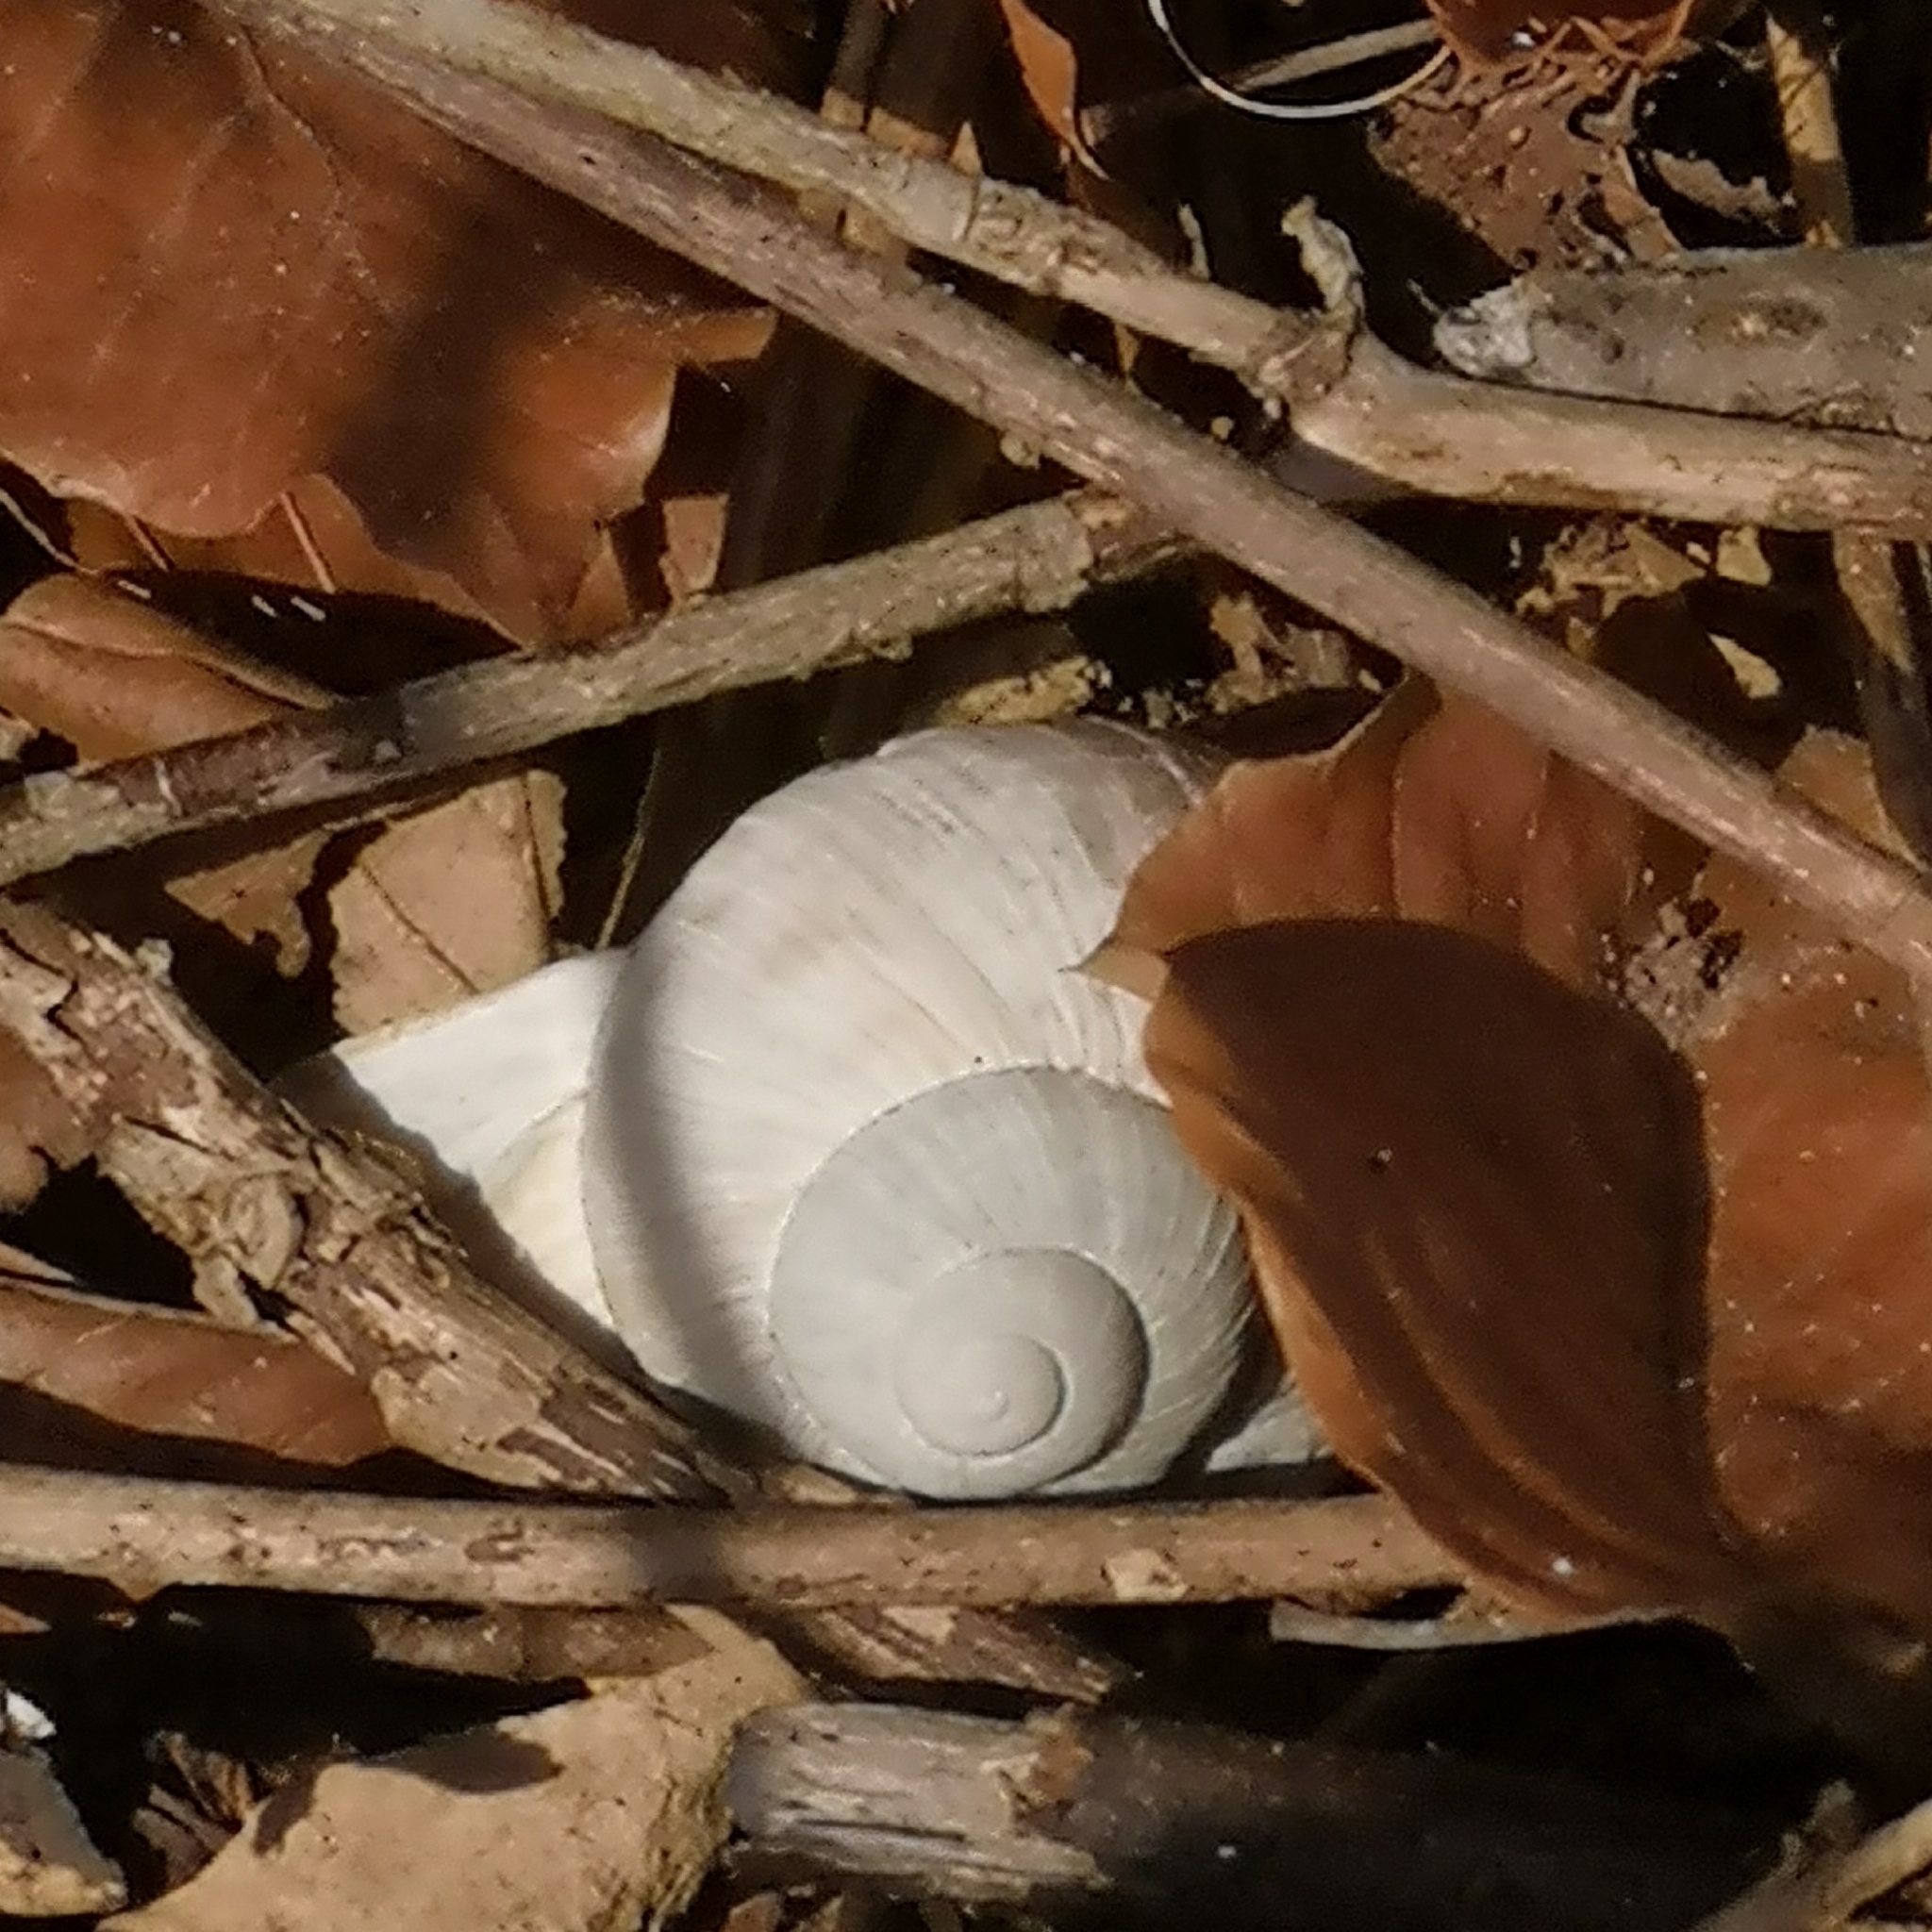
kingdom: Animalia
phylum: Mollusca
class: Gastropoda
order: Stylommatophora
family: Helicidae
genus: Helix
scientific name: Helix pomatia
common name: Roman snail
